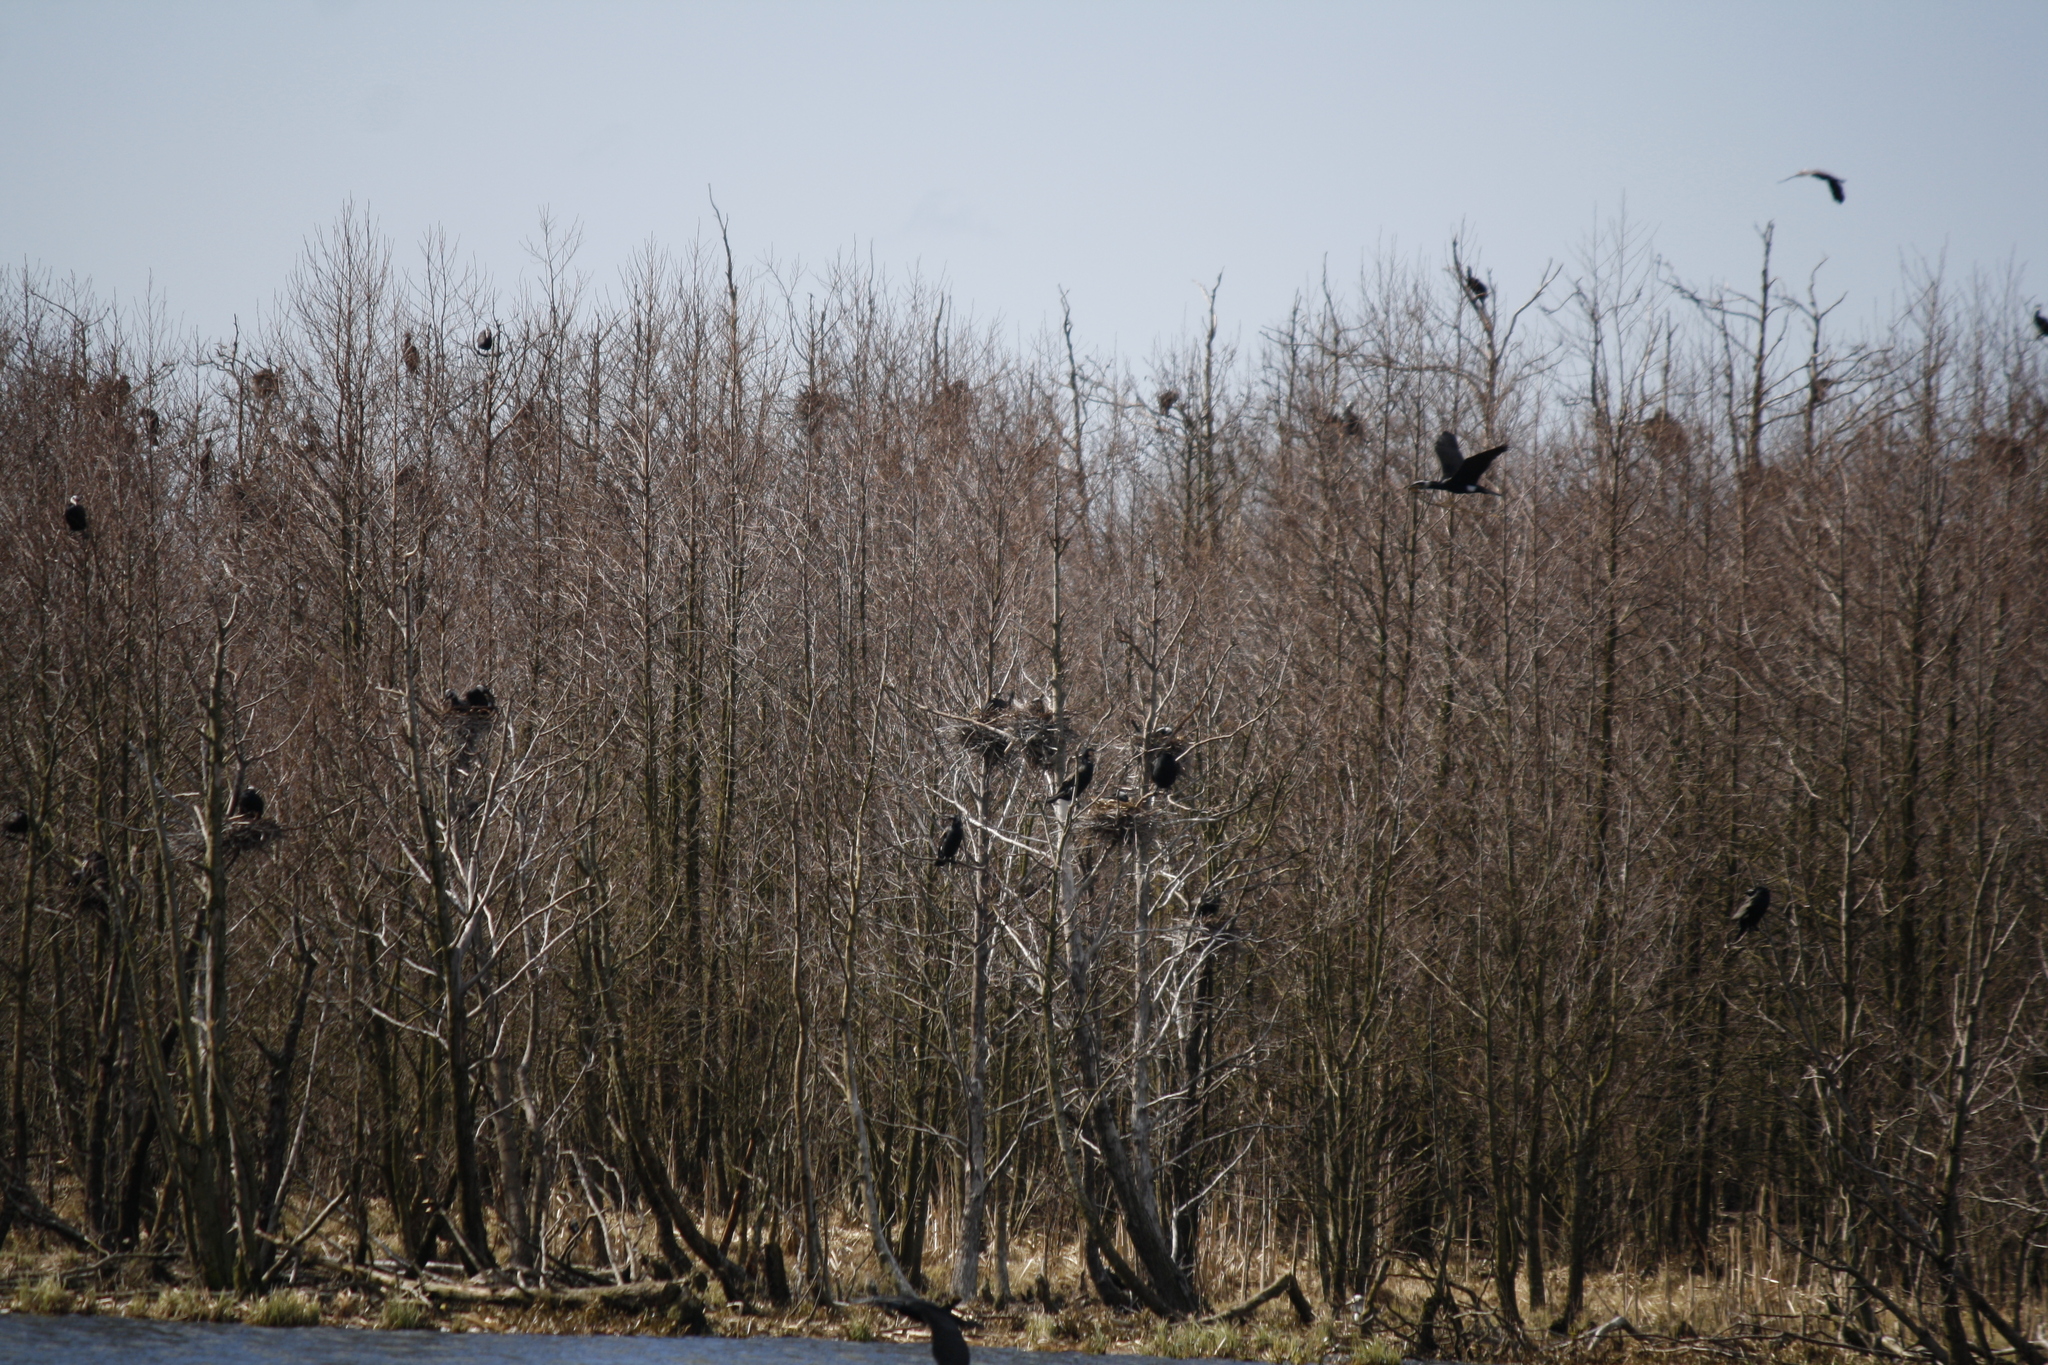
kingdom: Animalia
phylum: Chordata
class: Aves
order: Suliformes
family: Phalacrocoracidae
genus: Phalacrocorax
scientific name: Phalacrocorax carbo
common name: Great cormorant
